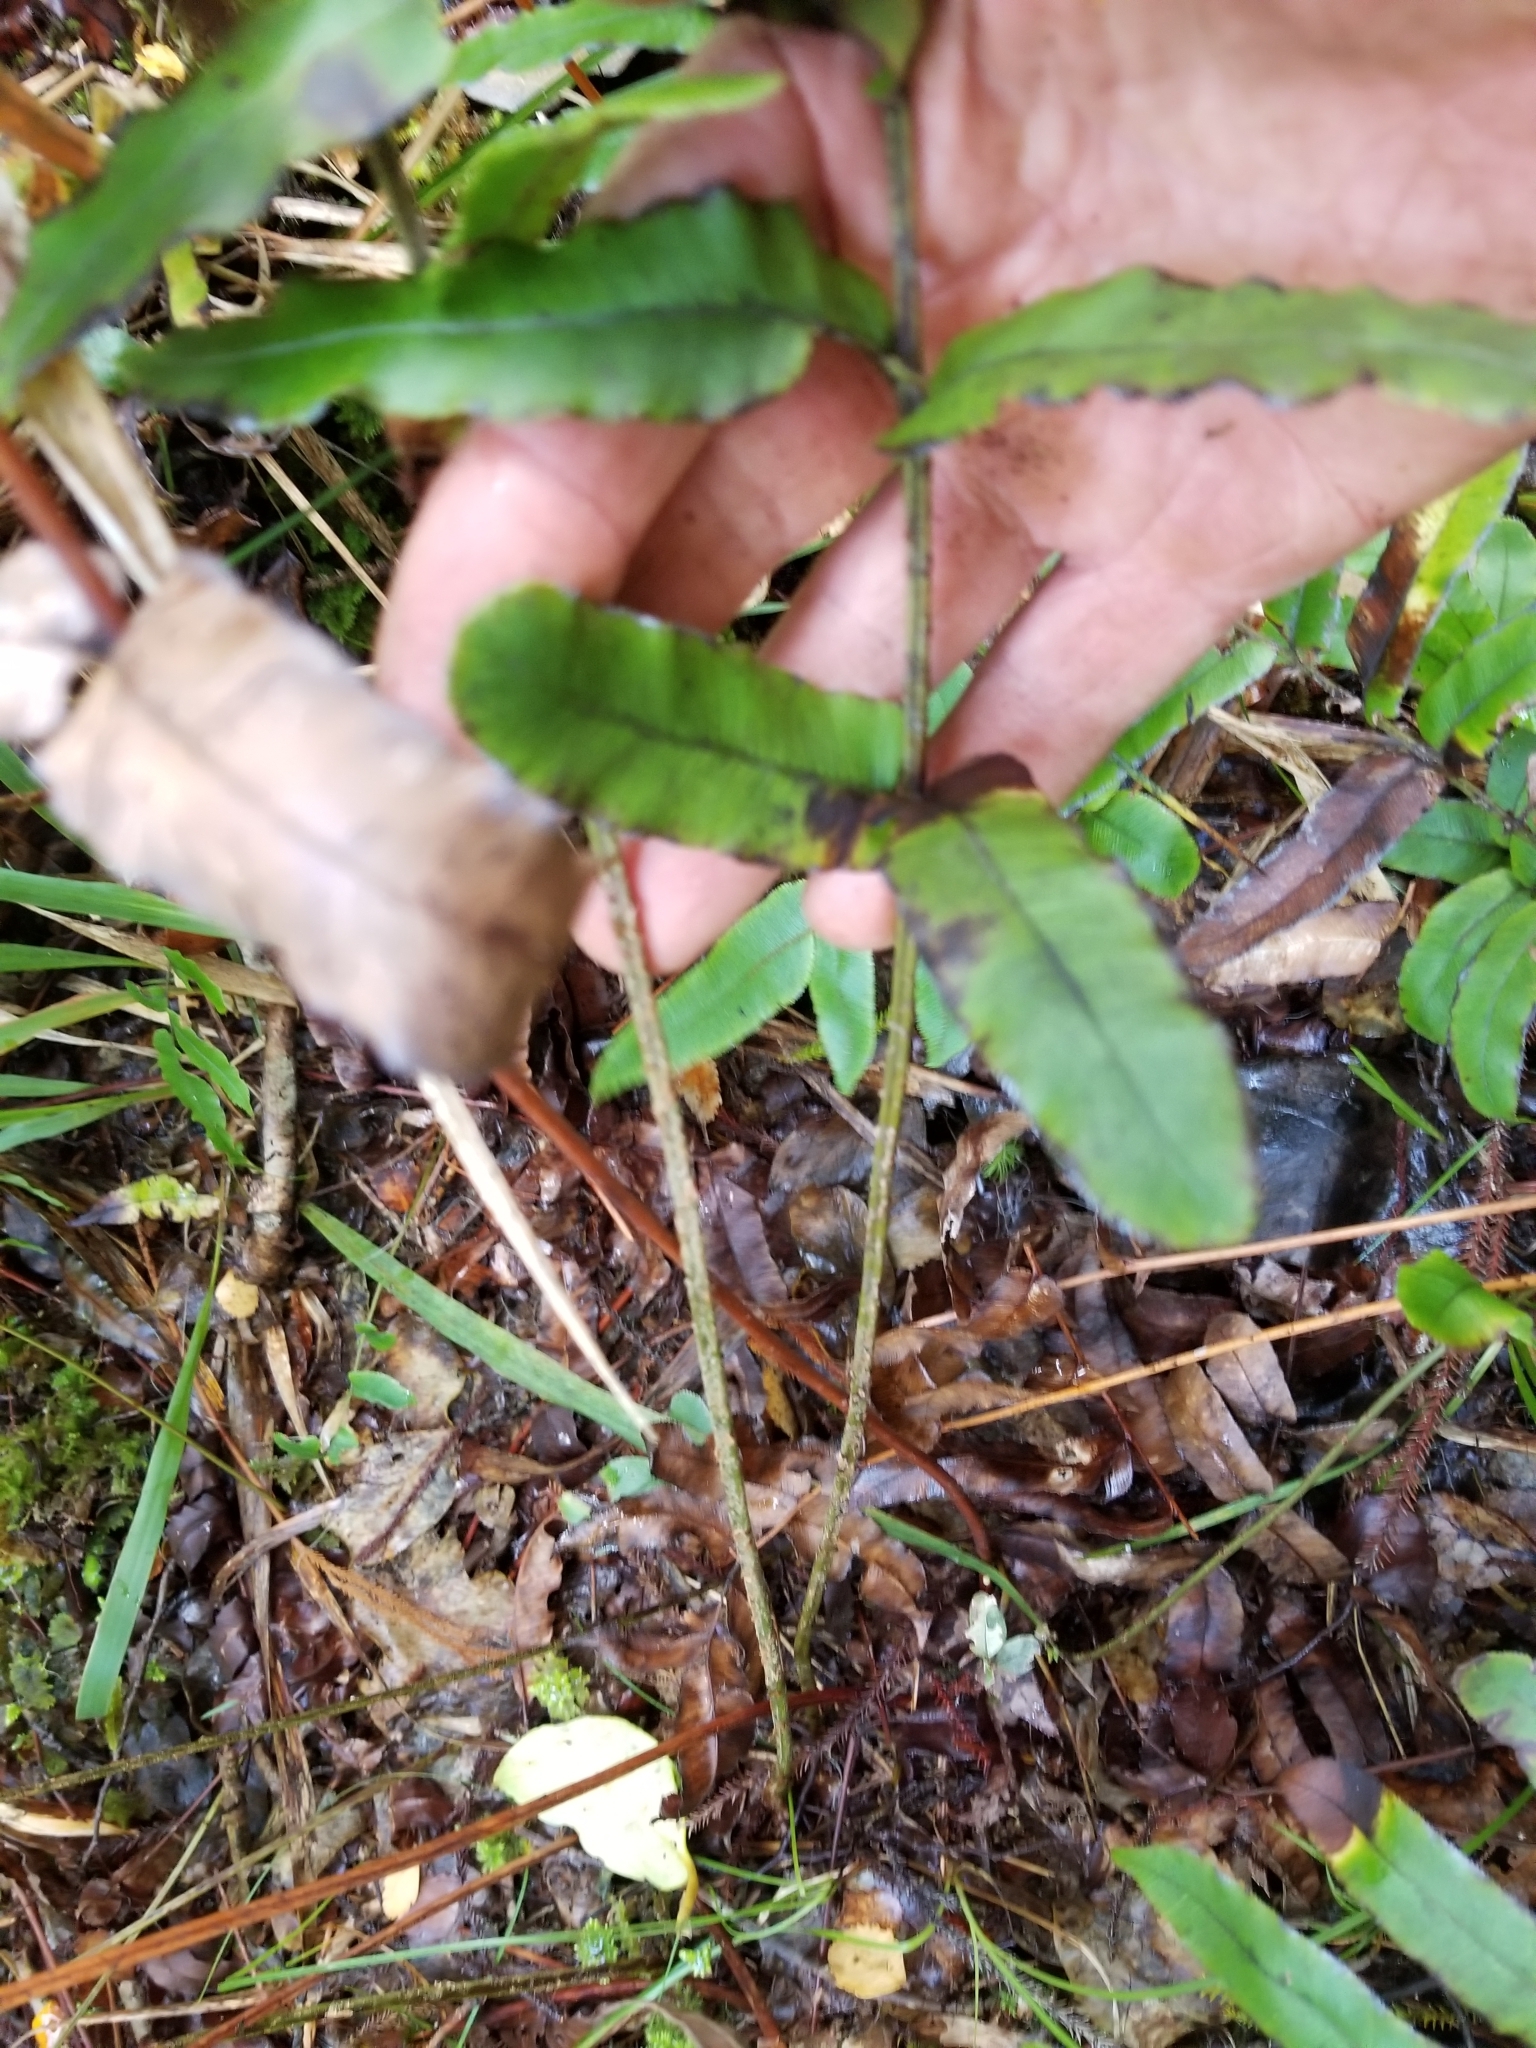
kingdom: Plantae
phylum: Tracheophyta
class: Polypodiopsida
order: Polypodiales
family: Blechnaceae
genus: Parablechnum
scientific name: Parablechnum procerum
